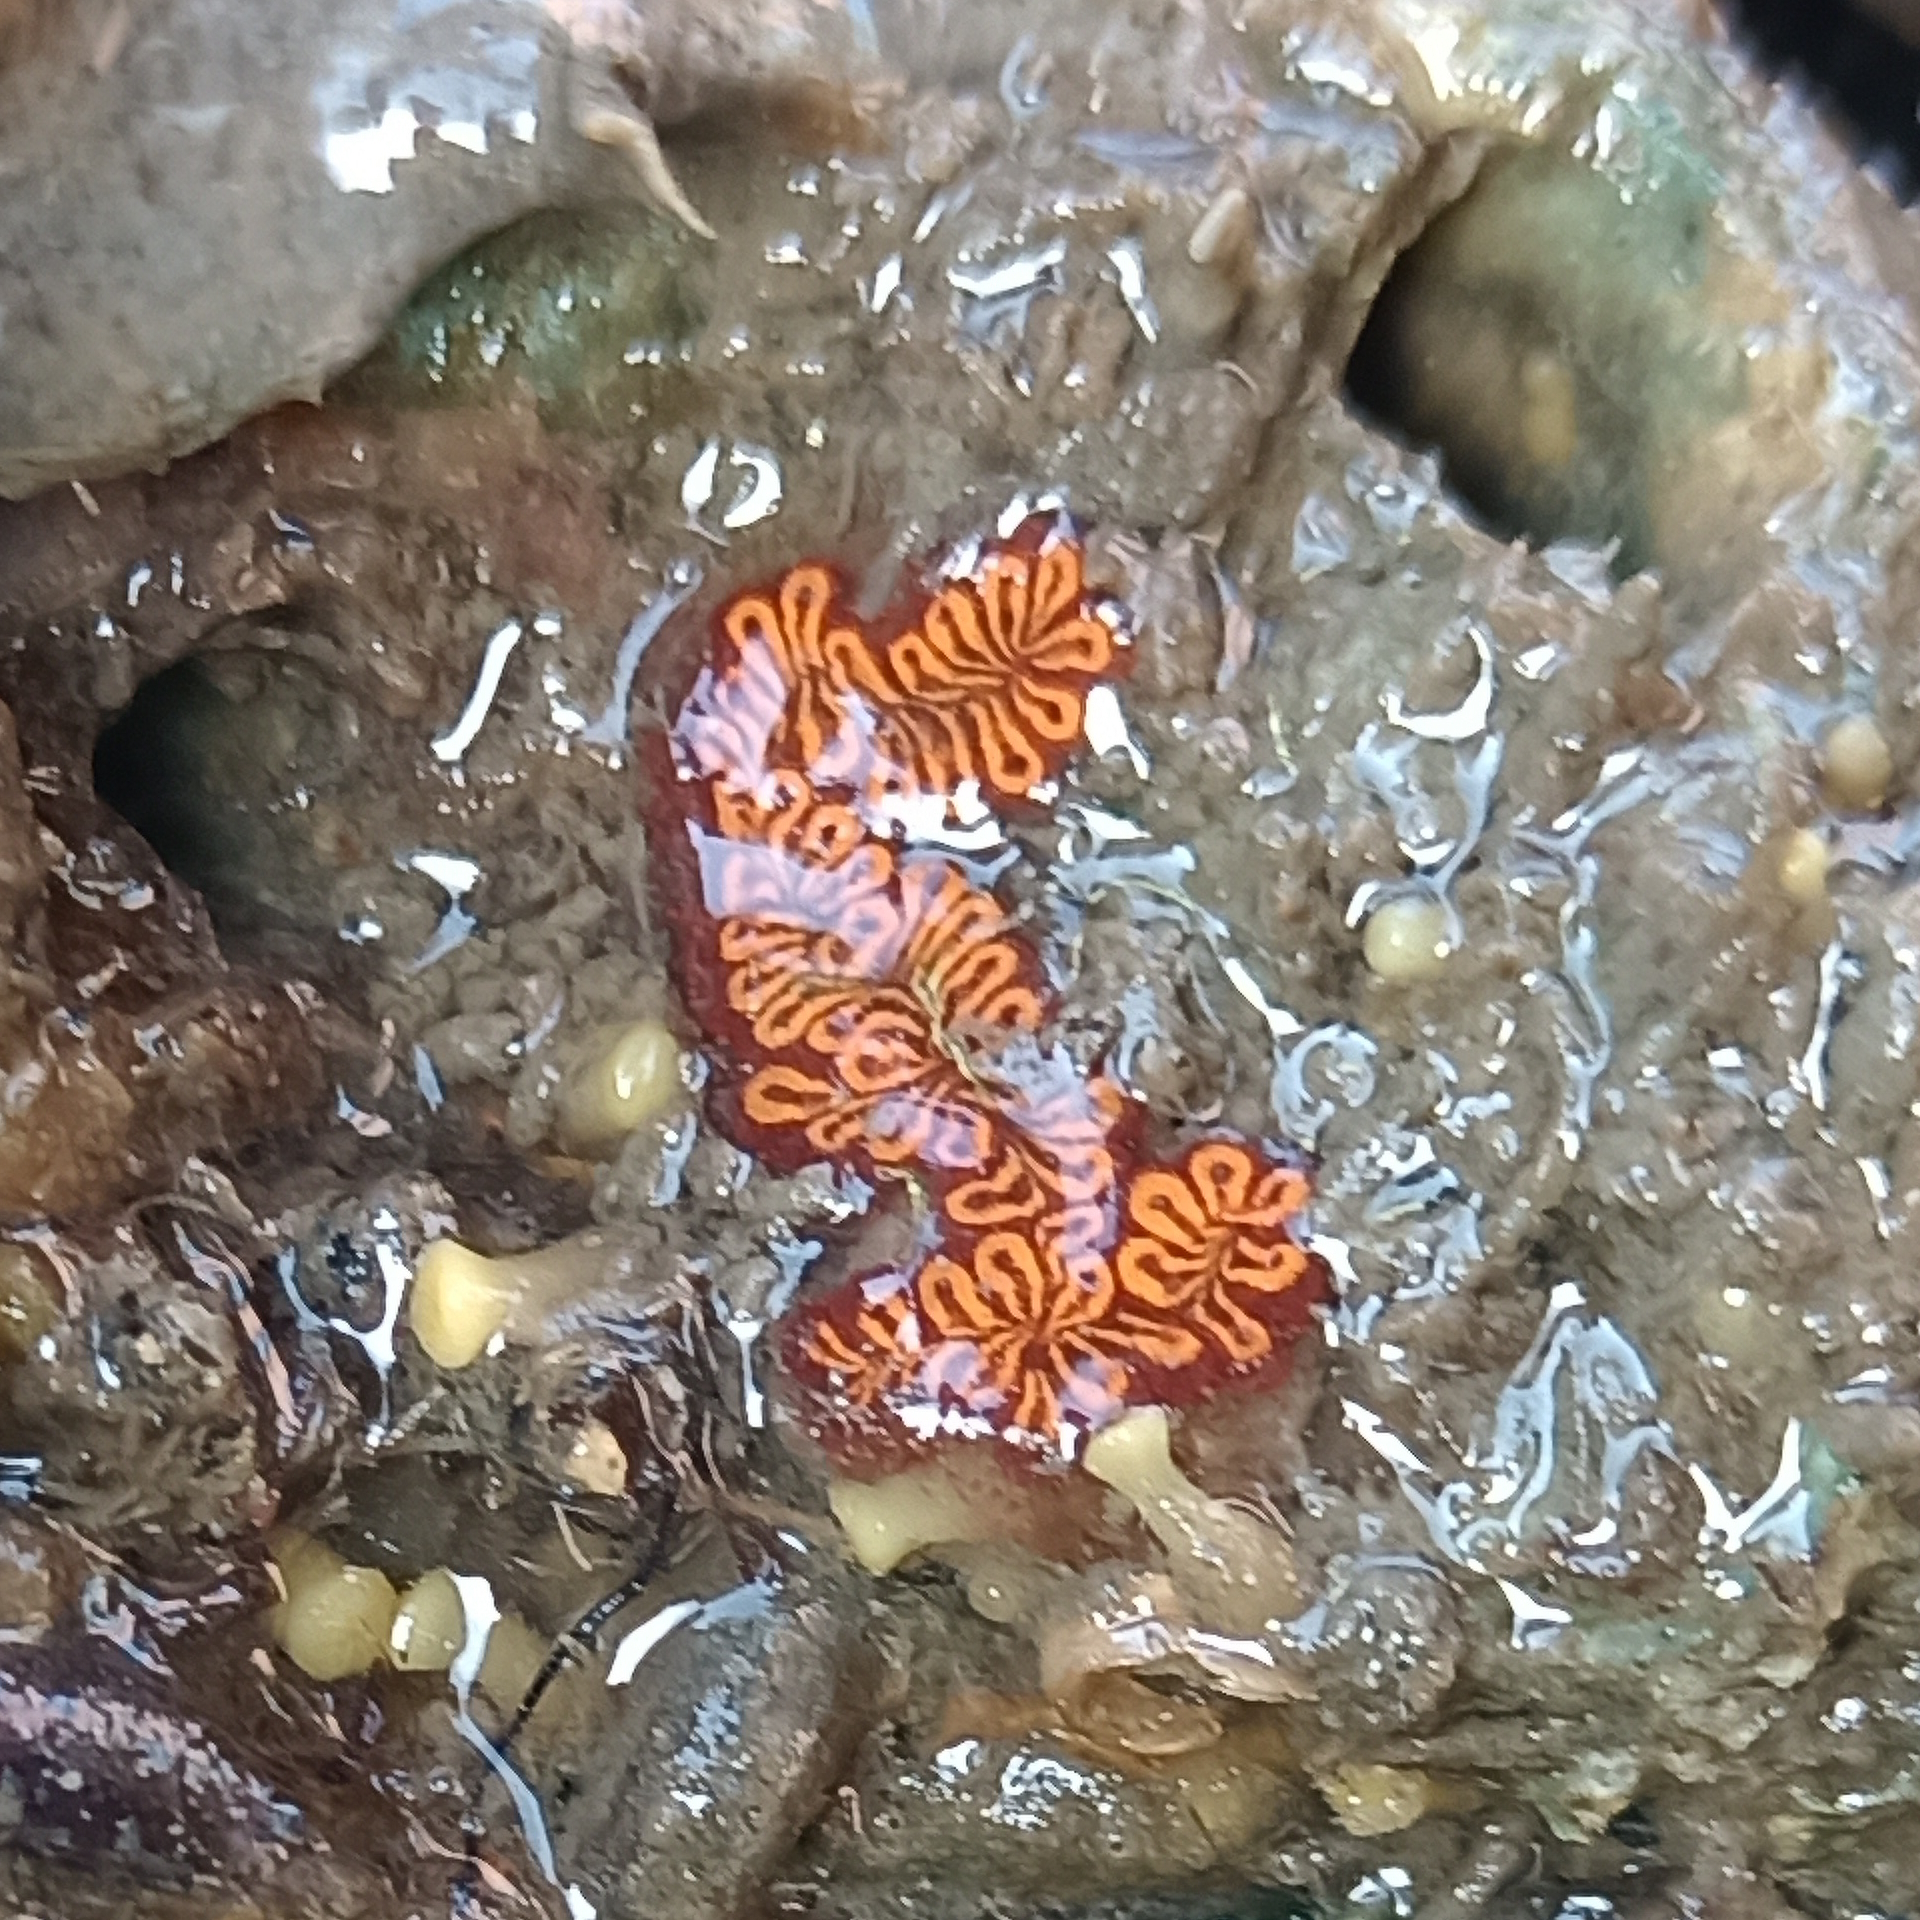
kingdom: Animalia
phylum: Chordata
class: Ascidiacea
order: Stolidobranchia
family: Styelidae
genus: Botrylloides
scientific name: Botrylloides niger
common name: Black synascidia
